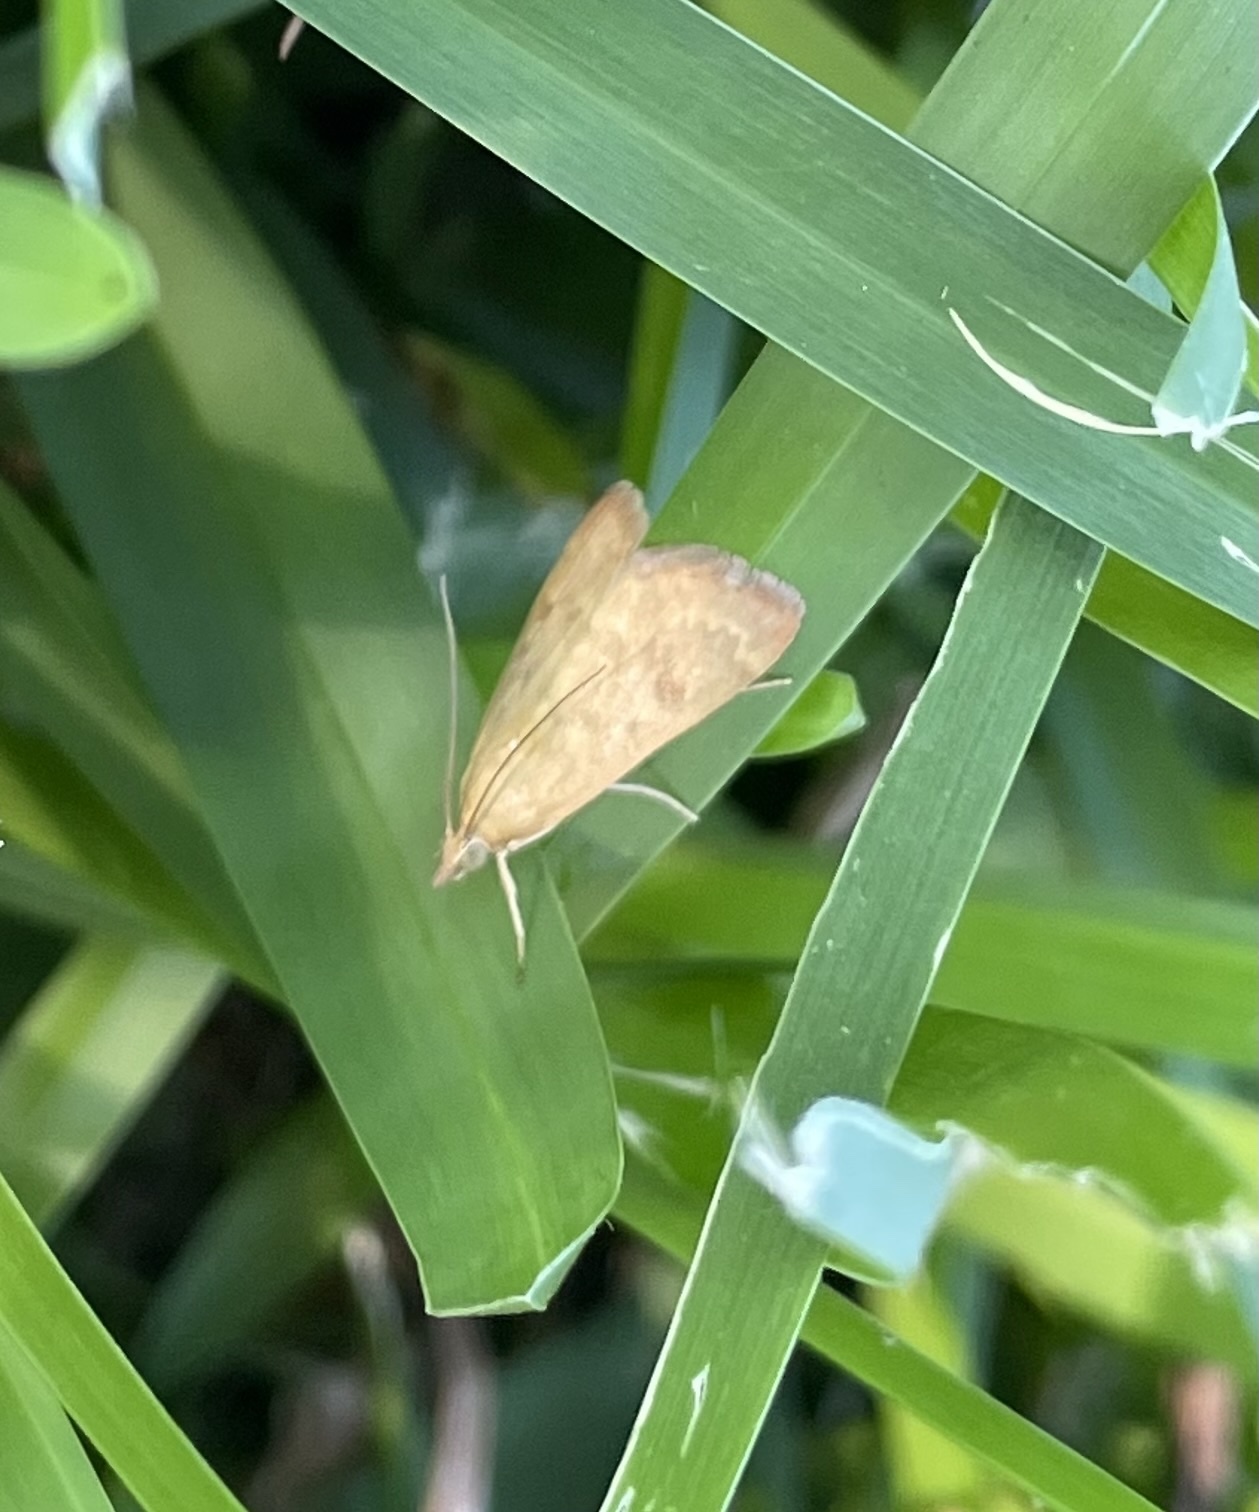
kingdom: Animalia
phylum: Arthropoda
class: Insecta
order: Lepidoptera
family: Crambidae
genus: Achyra
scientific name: Achyra rantalis
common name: Garden webworm
